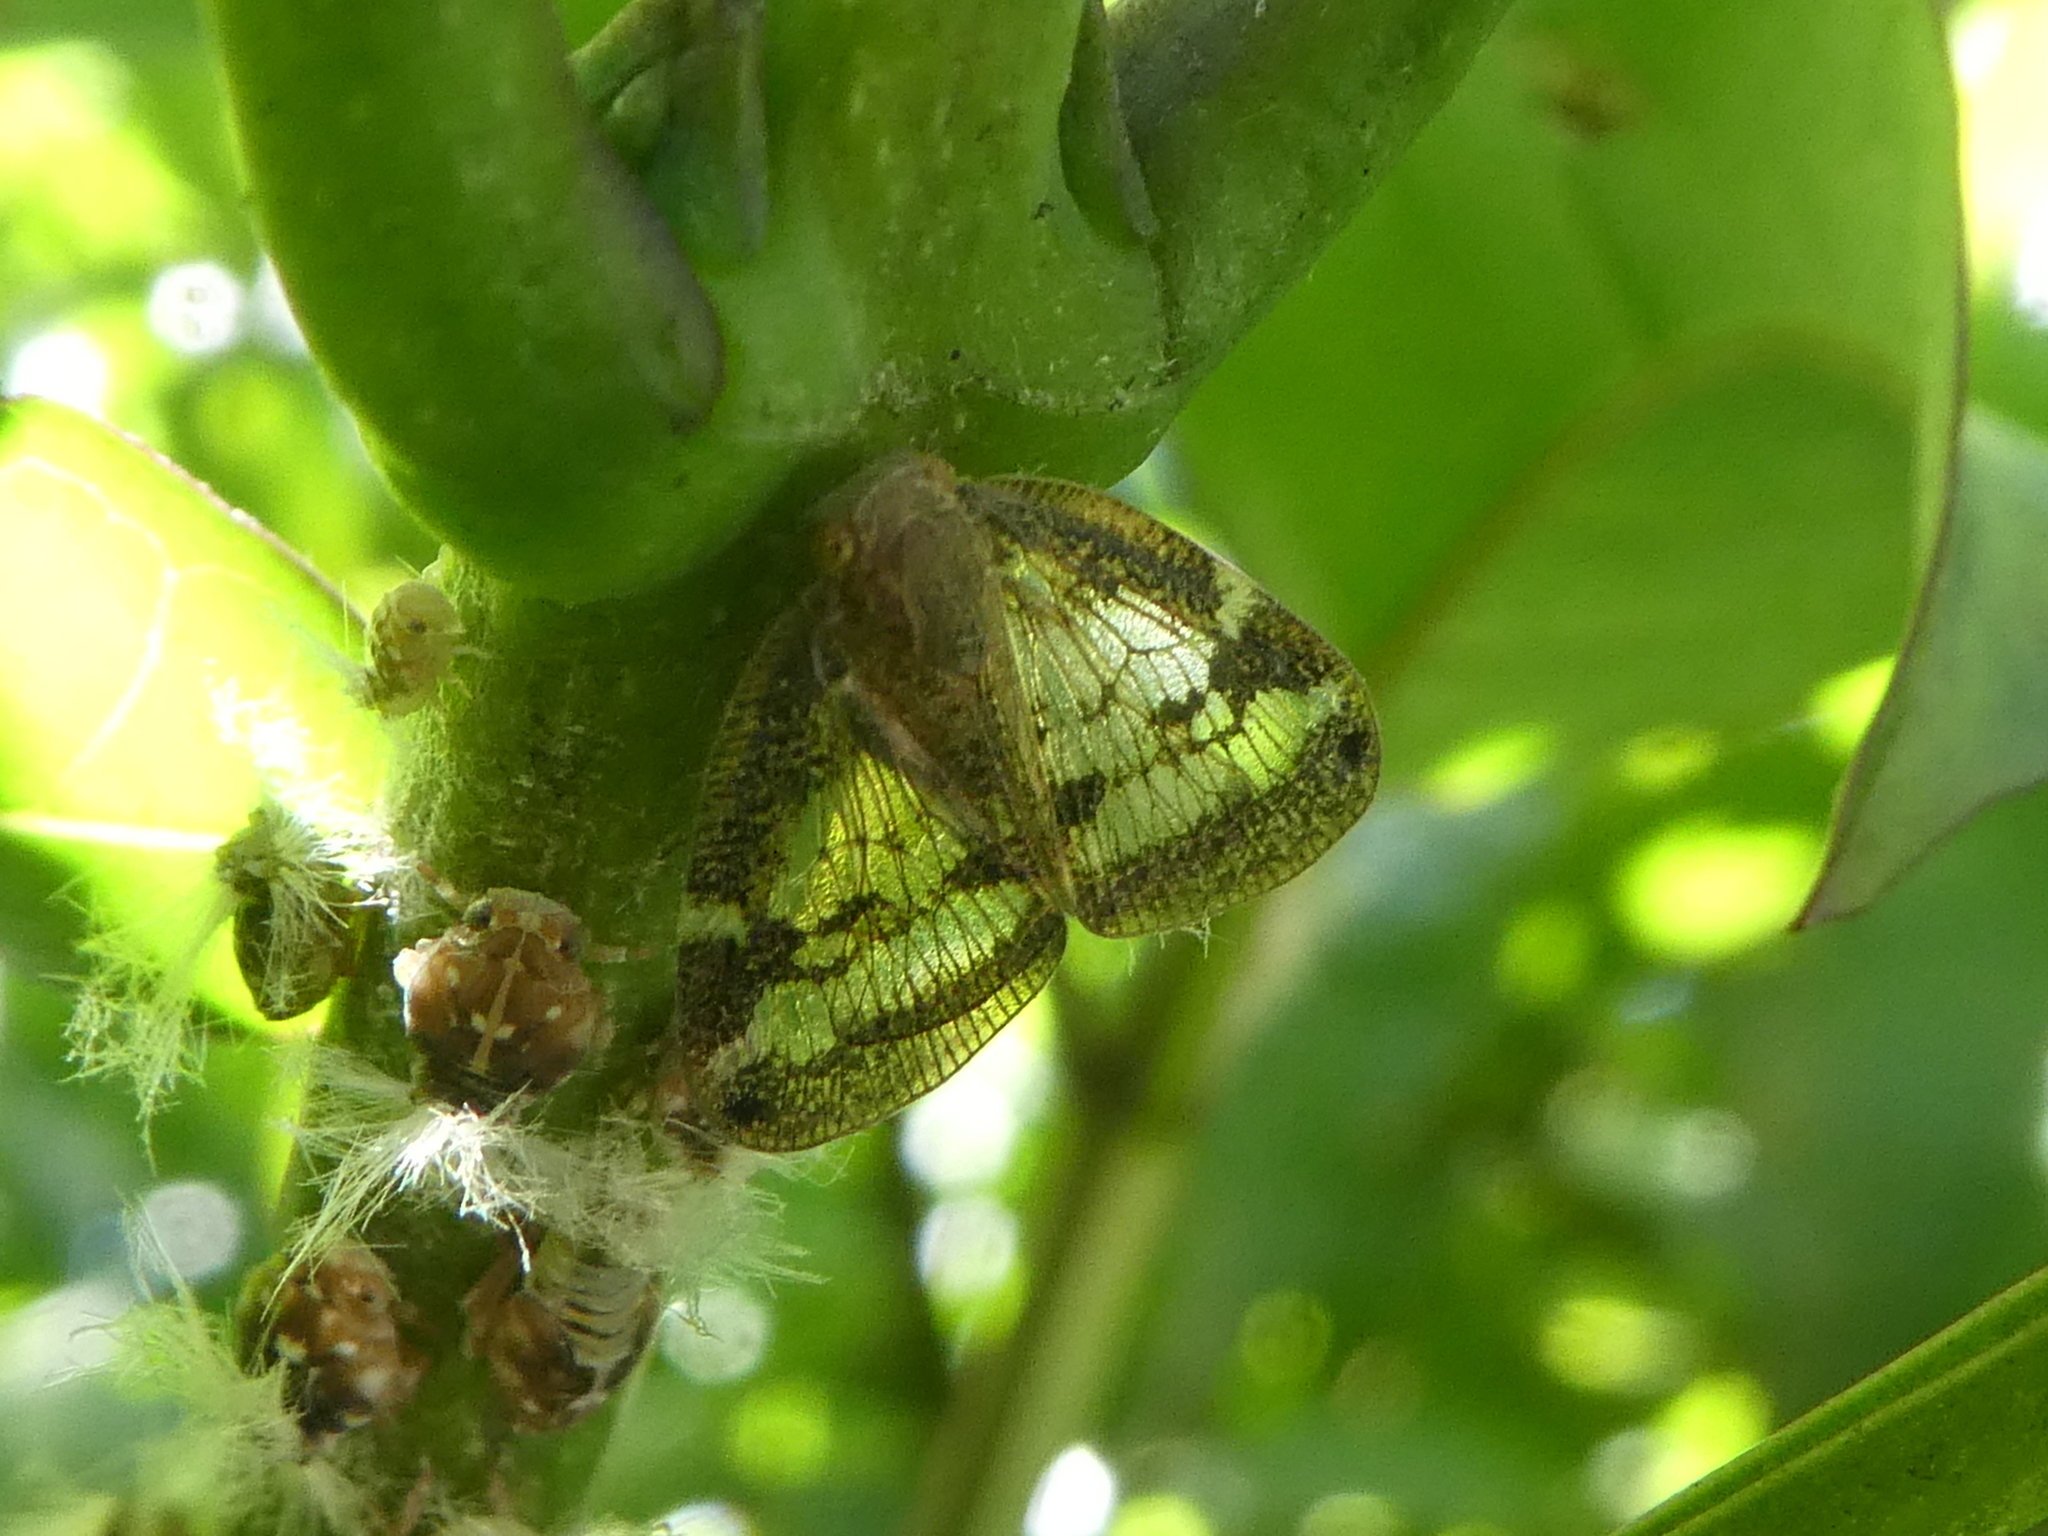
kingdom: Animalia
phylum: Arthropoda
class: Insecta
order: Hemiptera
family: Ricaniidae
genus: Scolypopa
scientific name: Scolypopa australis
